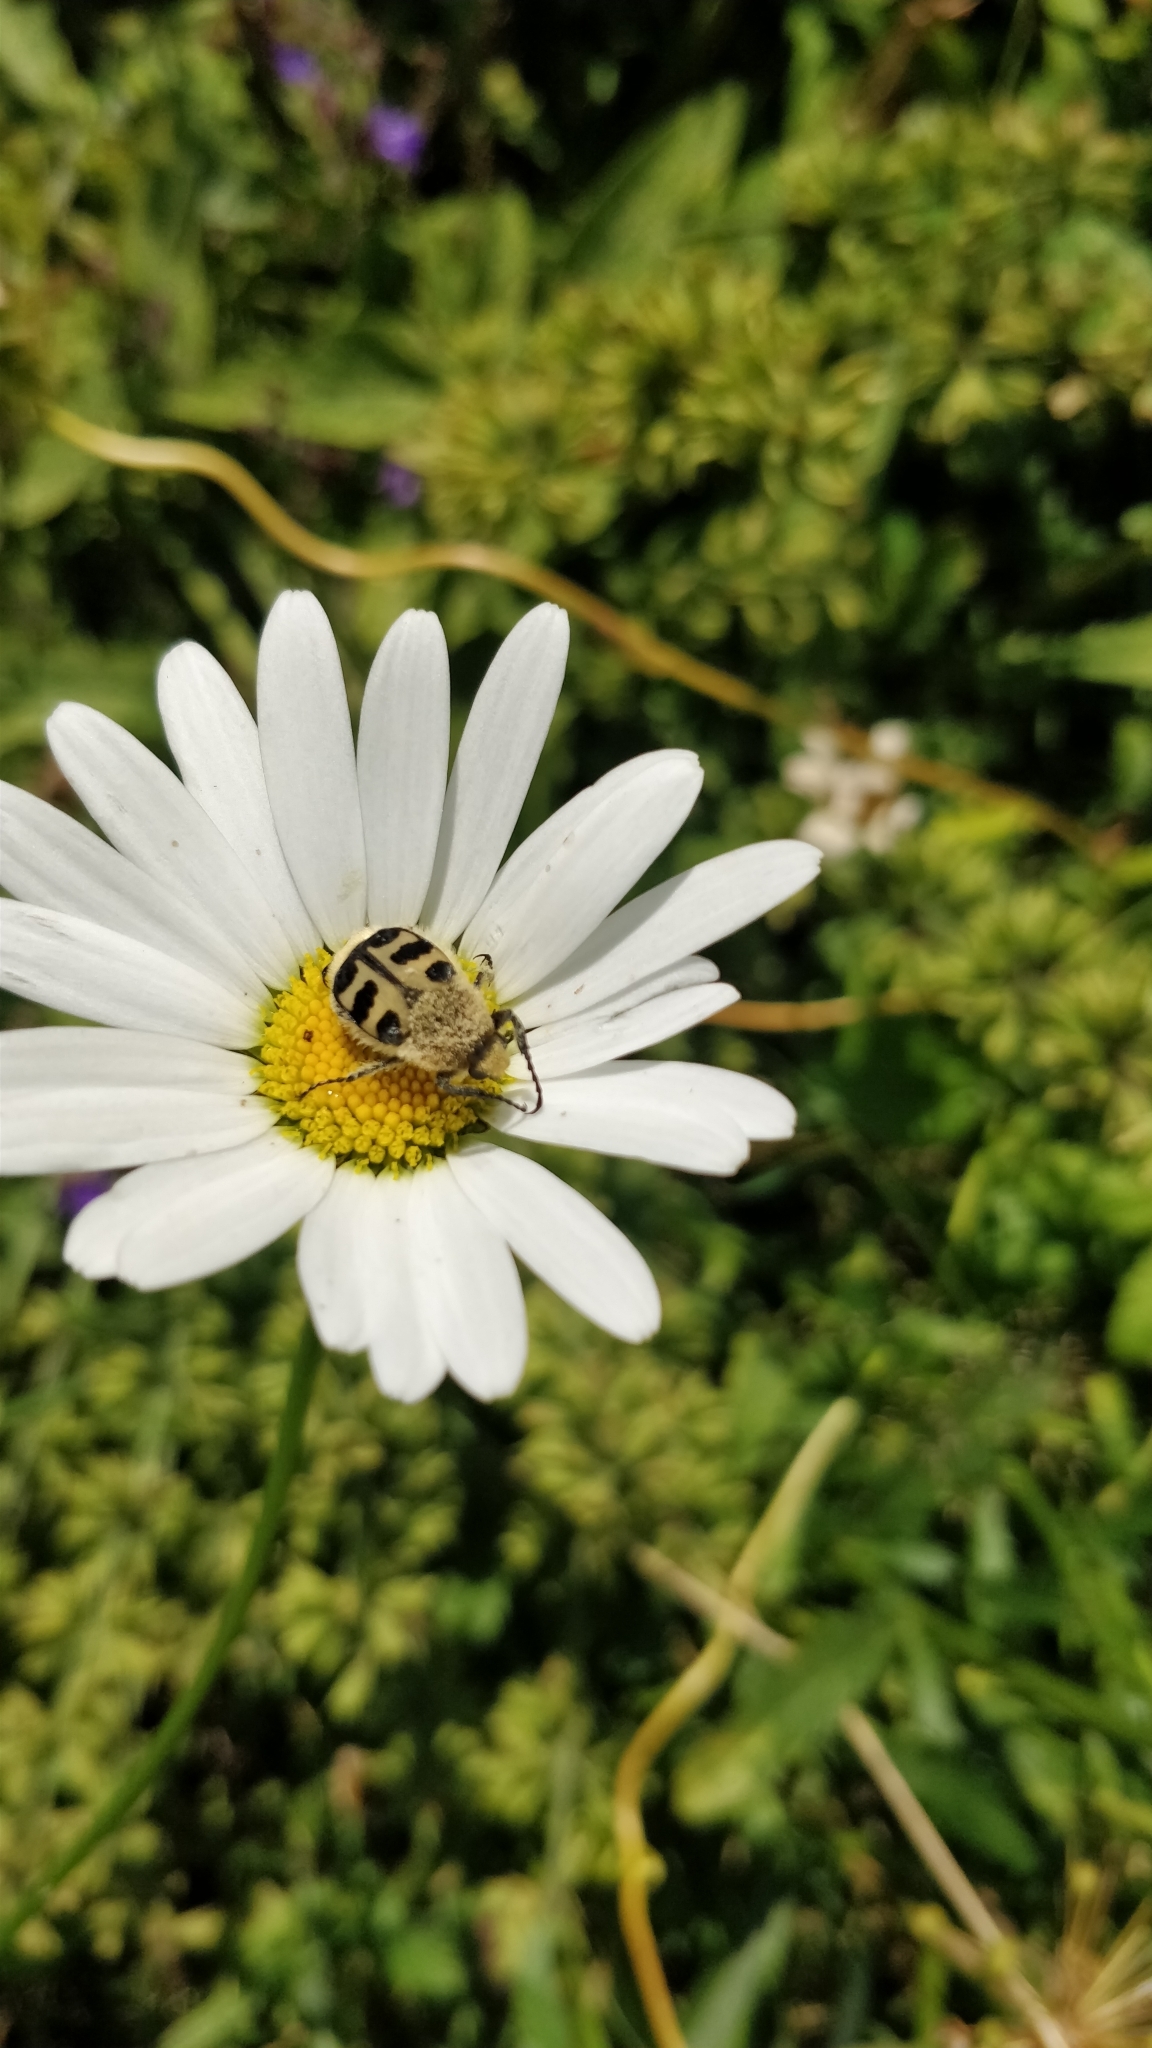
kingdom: Animalia
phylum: Arthropoda
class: Insecta
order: Coleoptera
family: Scarabaeidae
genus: Trichius
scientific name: Trichius gallicus
